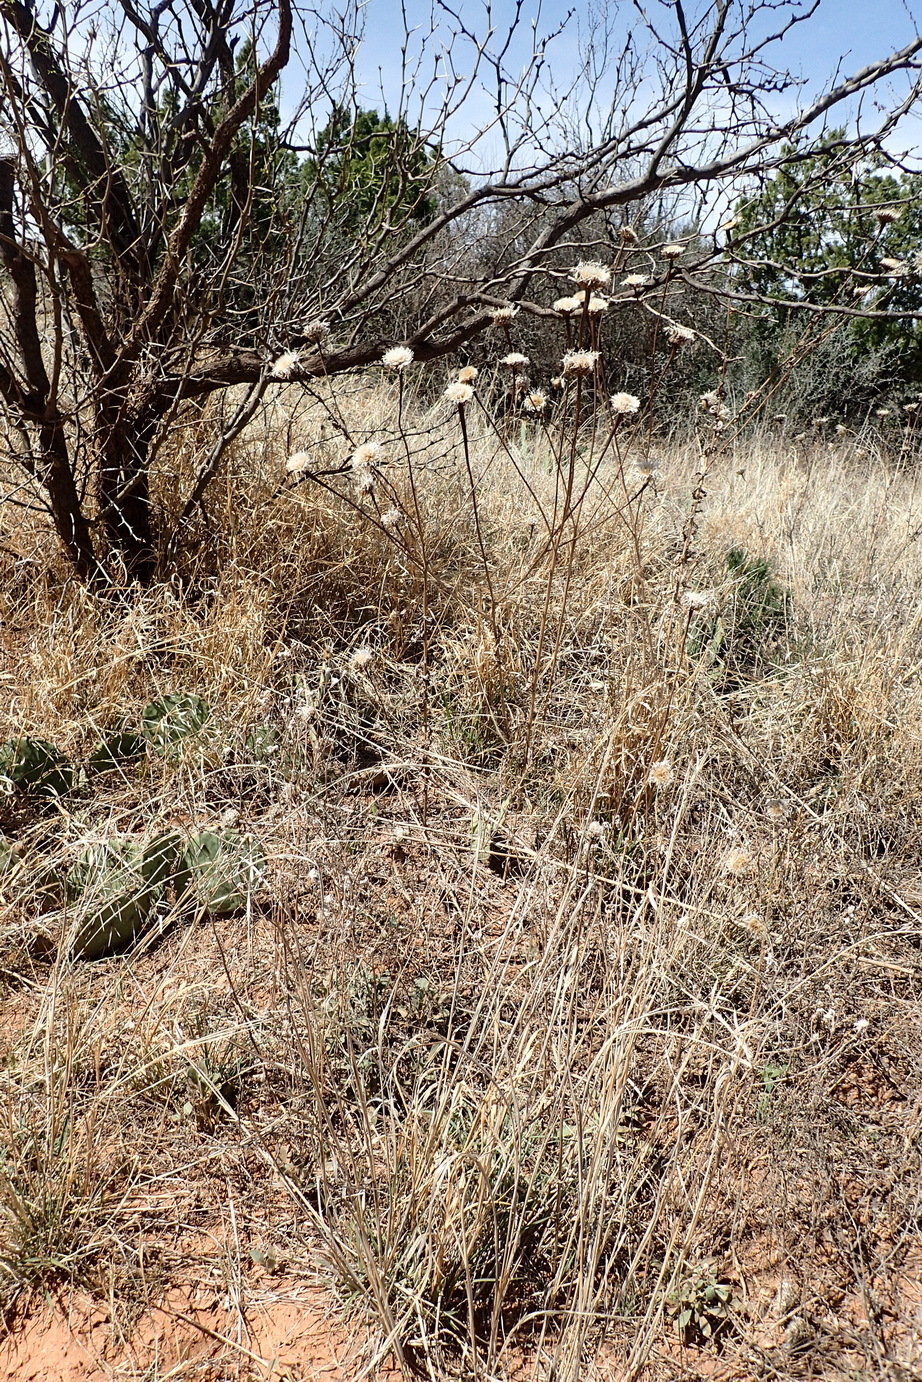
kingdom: Plantae
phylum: Tracheophyta
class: Magnoliopsida
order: Asterales
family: Asteraceae
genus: Plectocephalus
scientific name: Plectocephalus americanus
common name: American basket-flower
